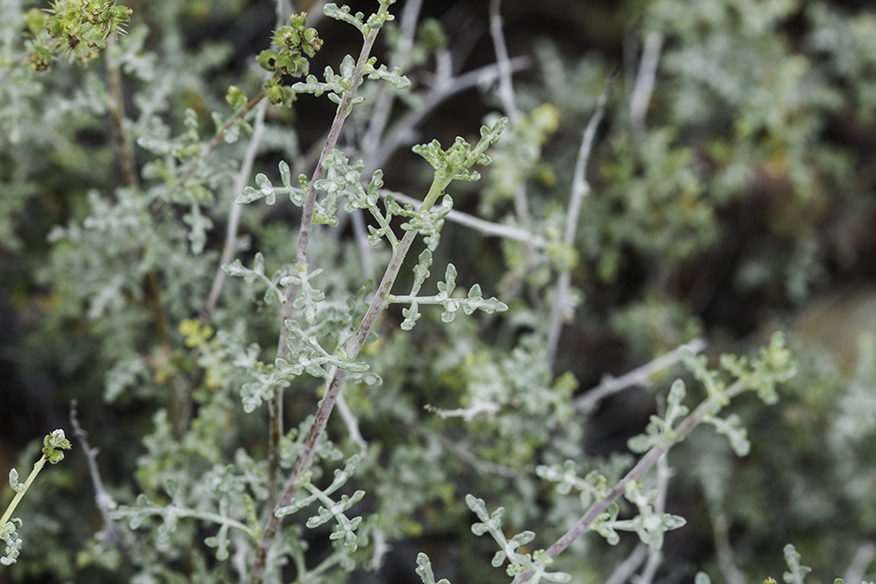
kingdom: Plantae
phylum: Tracheophyta
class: Magnoliopsida
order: Asterales
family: Asteraceae
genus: Ambrosia
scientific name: Ambrosia dumosa
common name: Bur-sage
